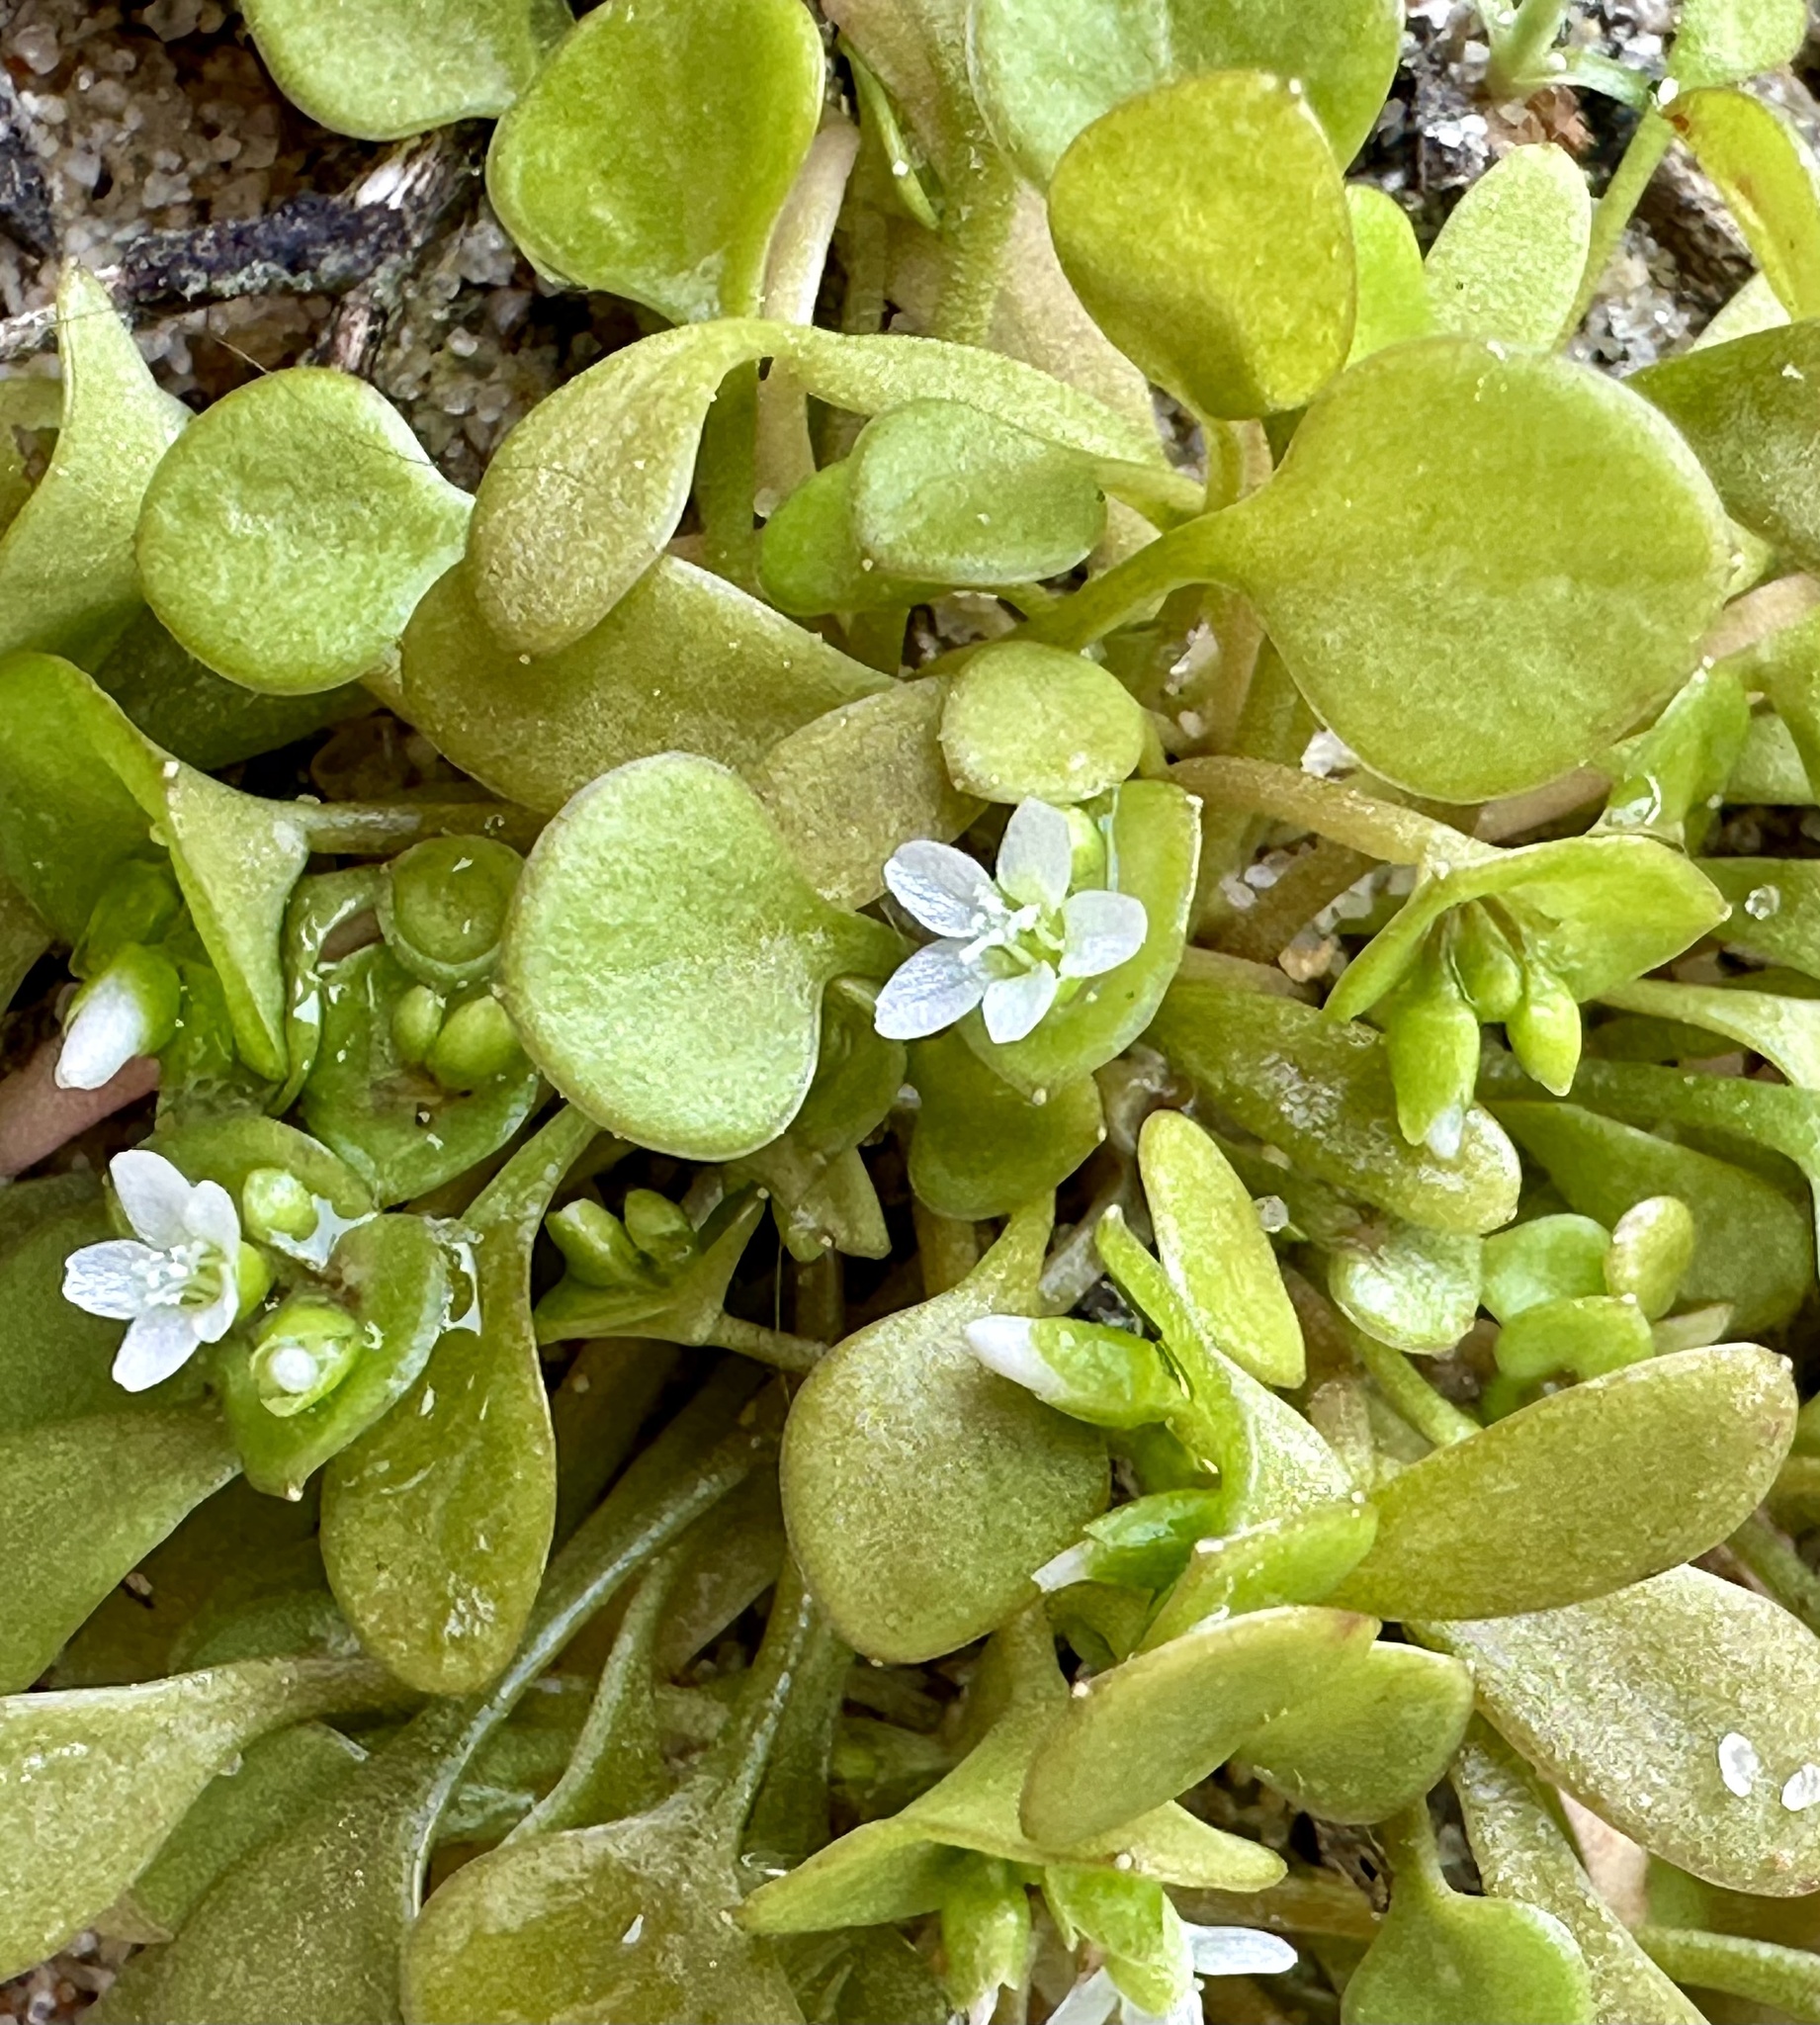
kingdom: Plantae
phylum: Tracheophyta
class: Magnoliopsida
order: Caryophyllales
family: Montiaceae
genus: Claytonia
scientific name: Claytonia perfoliata
